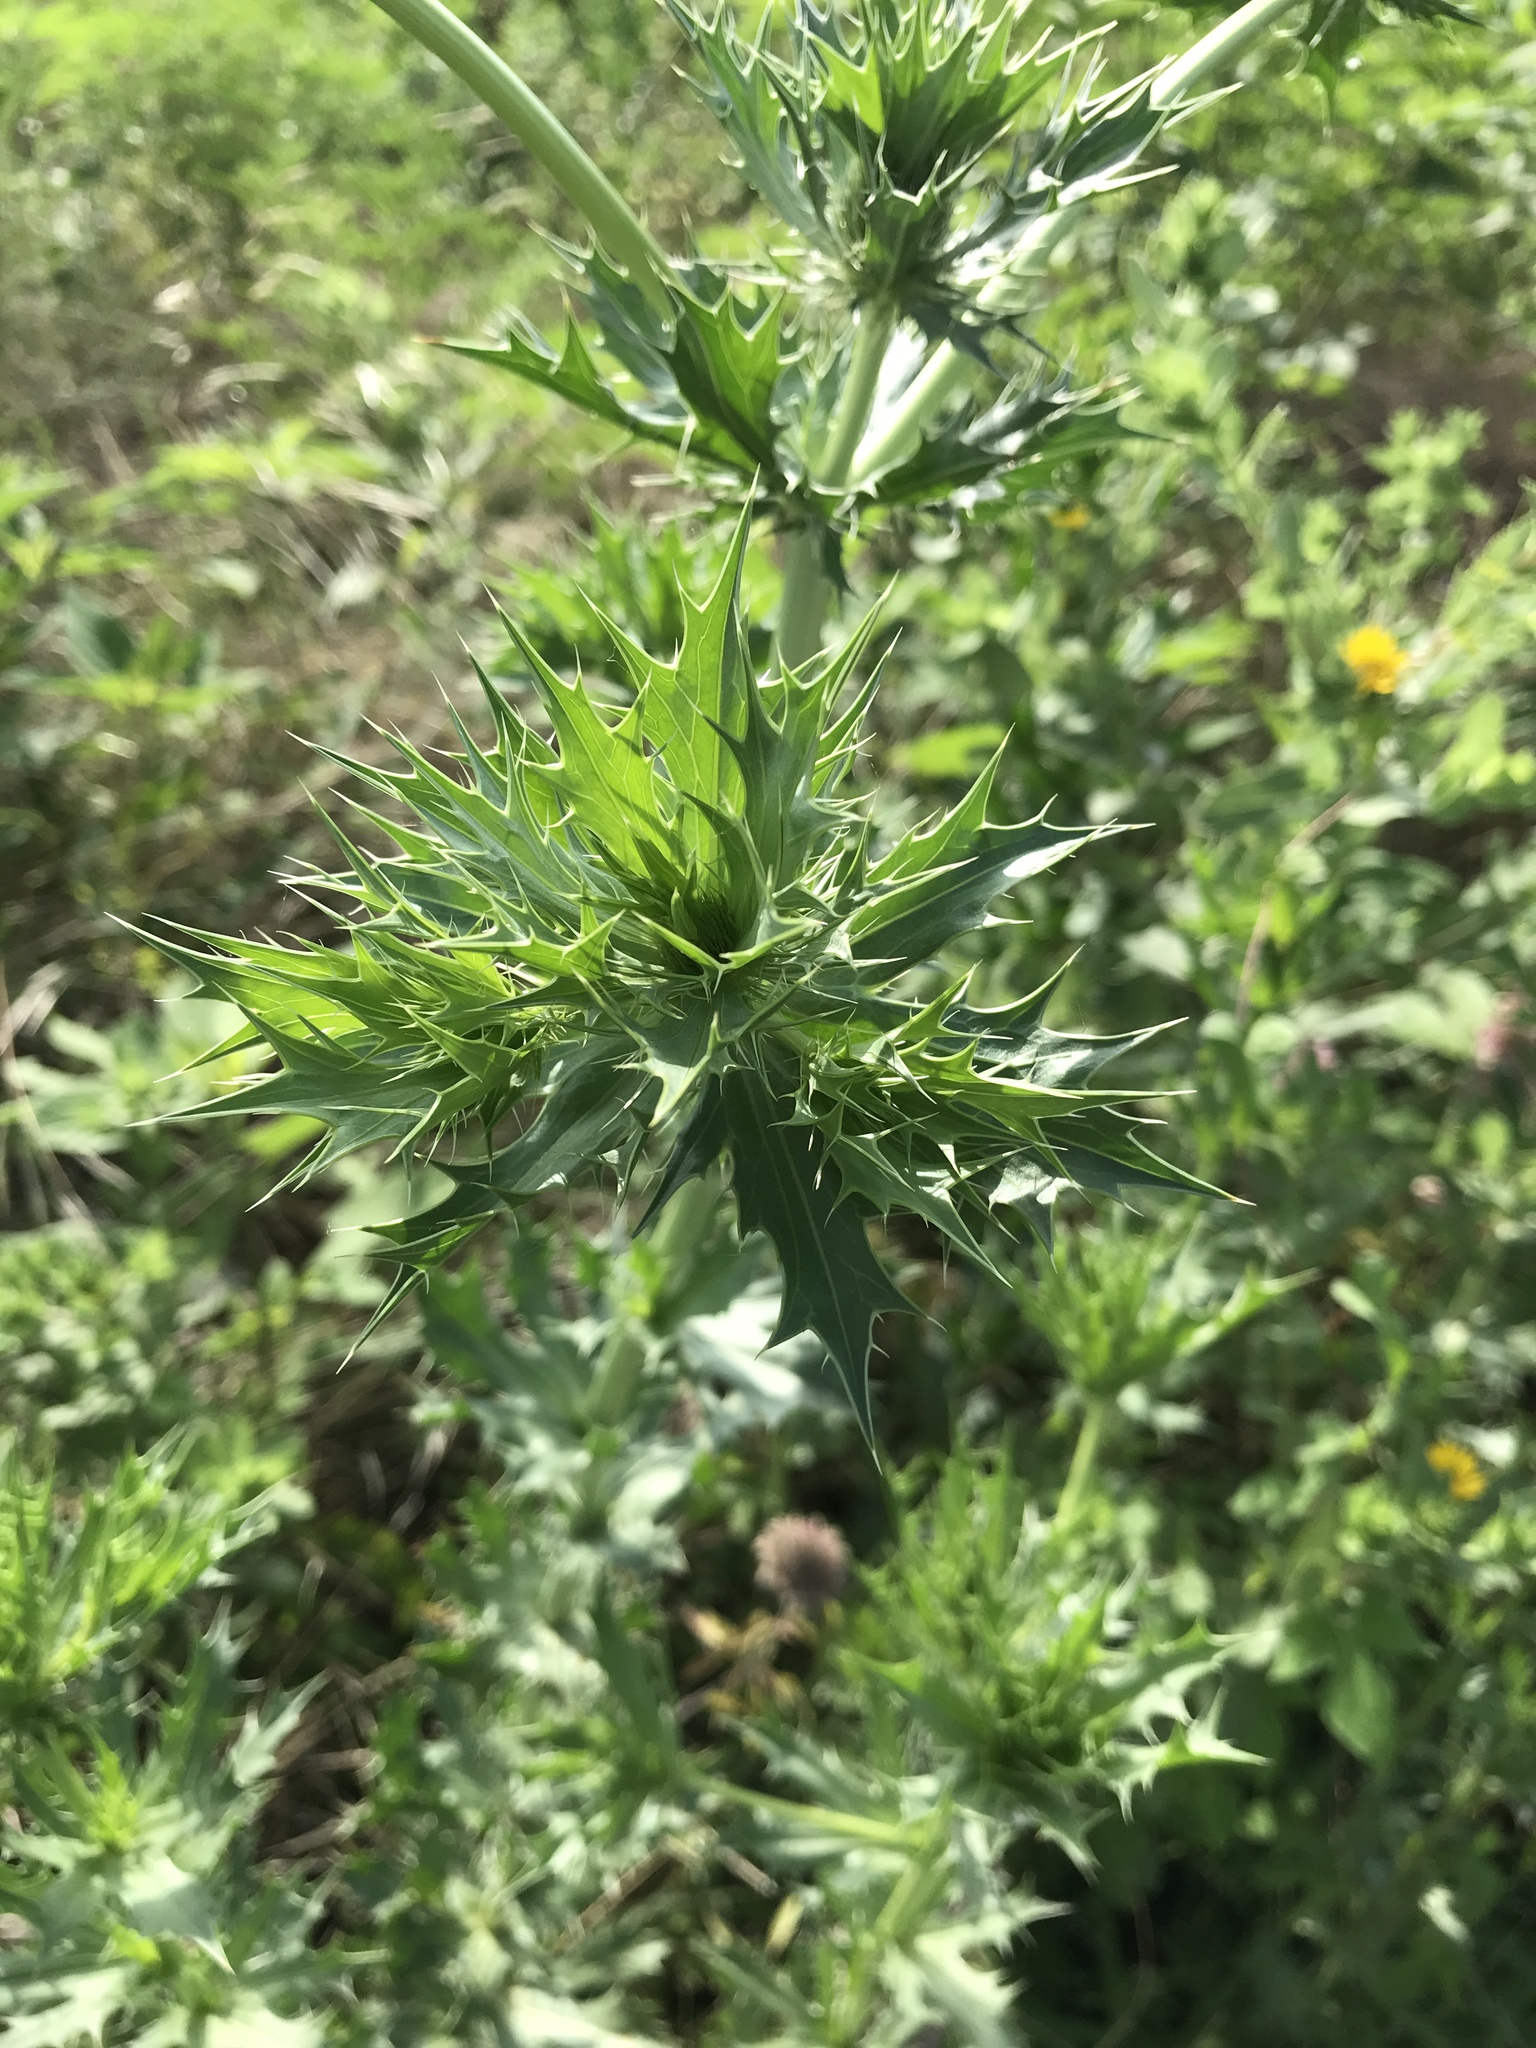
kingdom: Plantae
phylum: Tracheophyta
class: Magnoliopsida
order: Apiales
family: Apiaceae
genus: Eryngium
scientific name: Eryngium leavenworthii
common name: Leavenworth's eryngo
